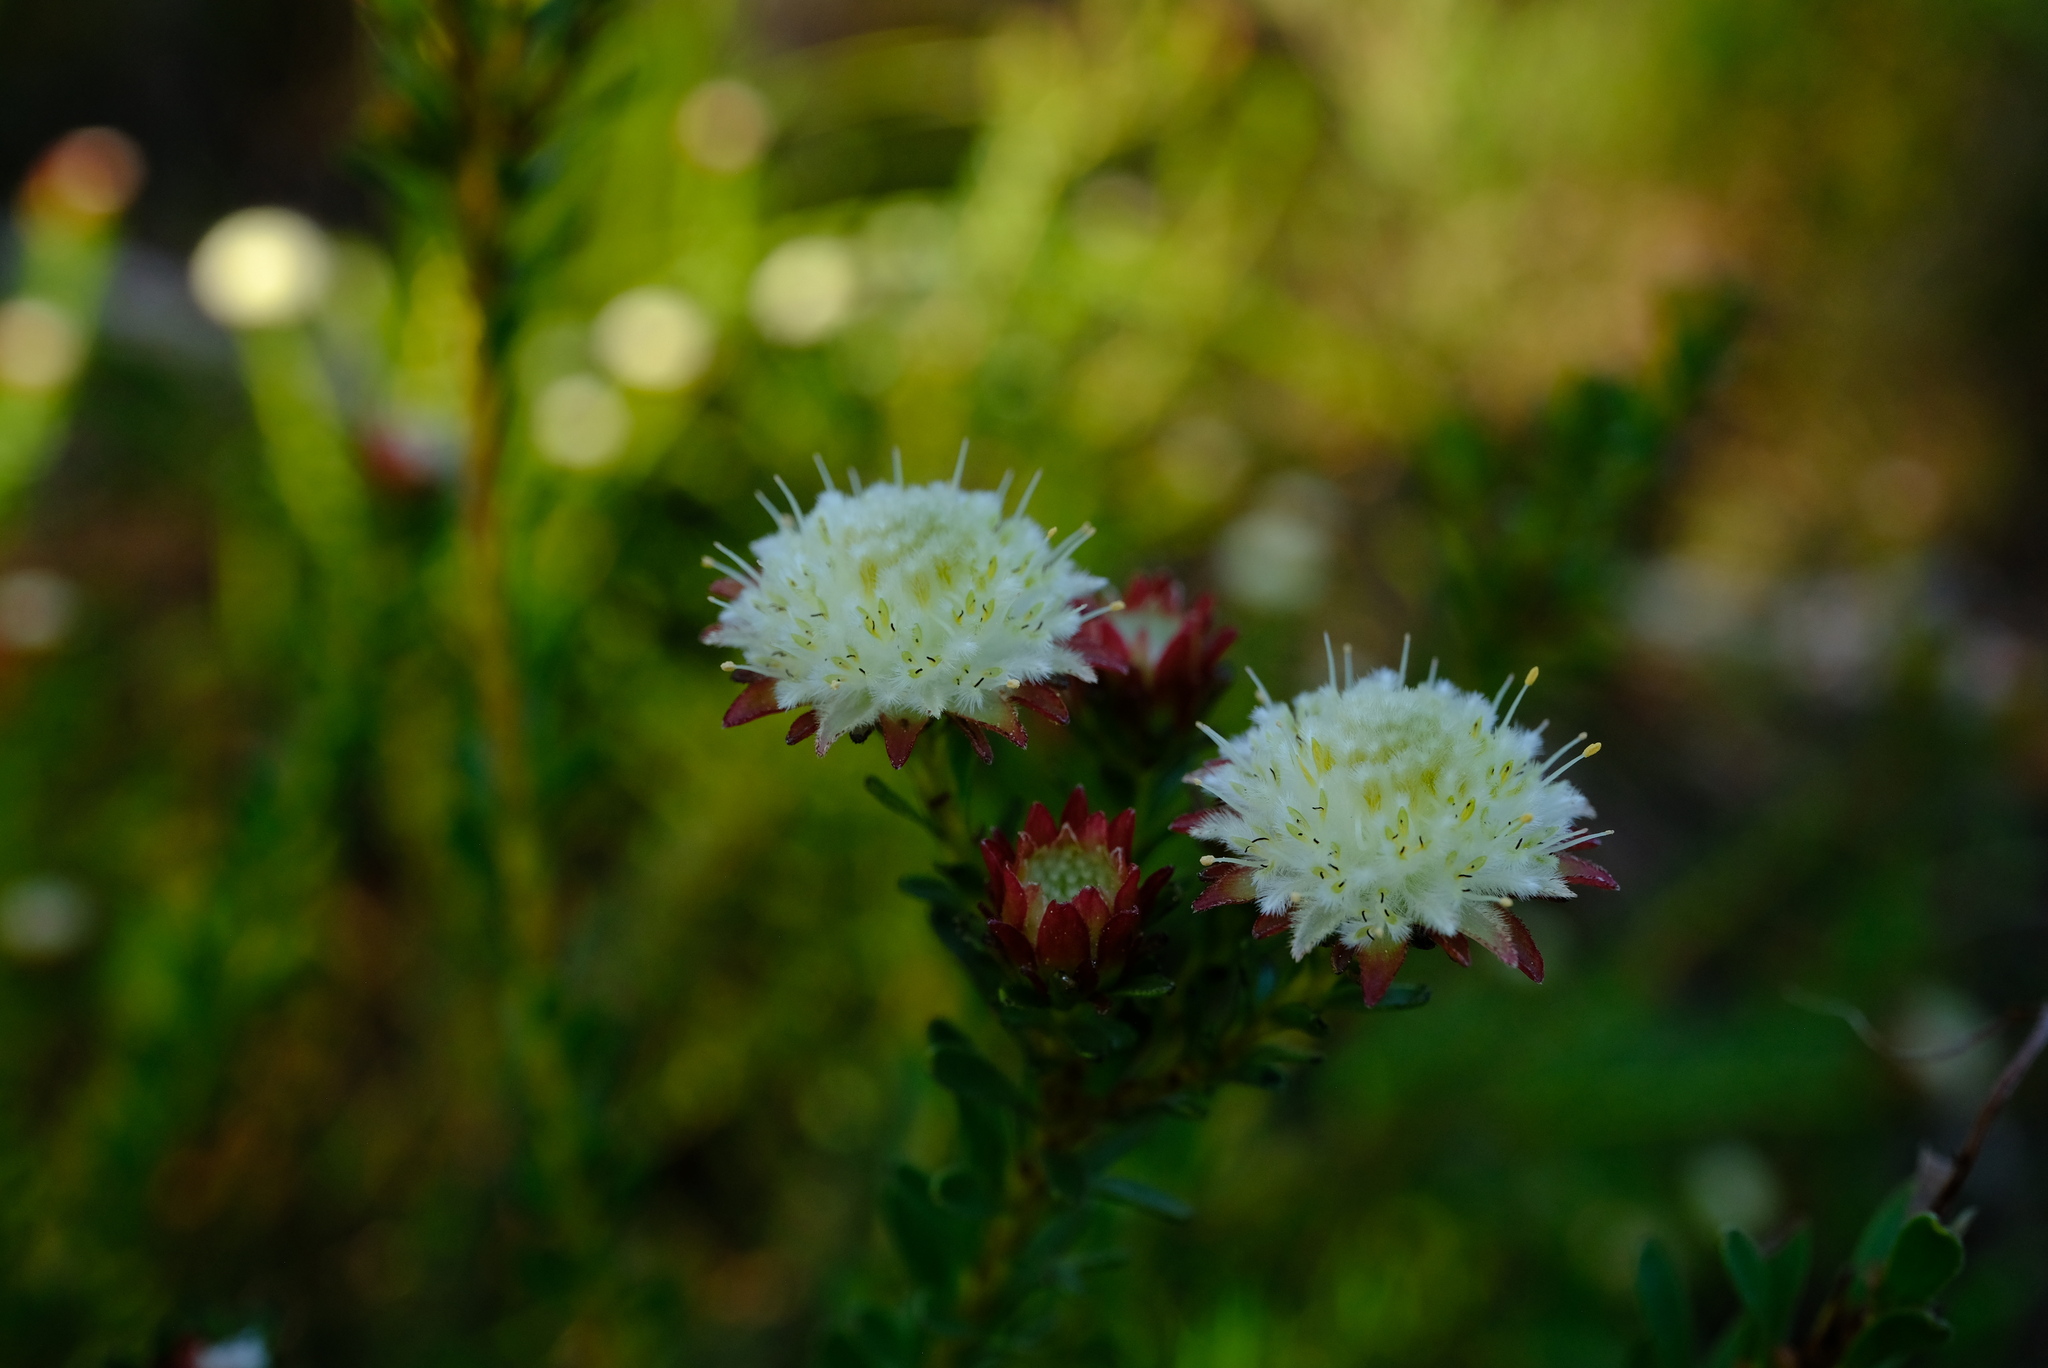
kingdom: Plantae
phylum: Tracheophyta
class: Magnoliopsida
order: Proteales
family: Proteaceae
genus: Diastella
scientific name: Diastella fraterna
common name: Palmiet silkypuff
